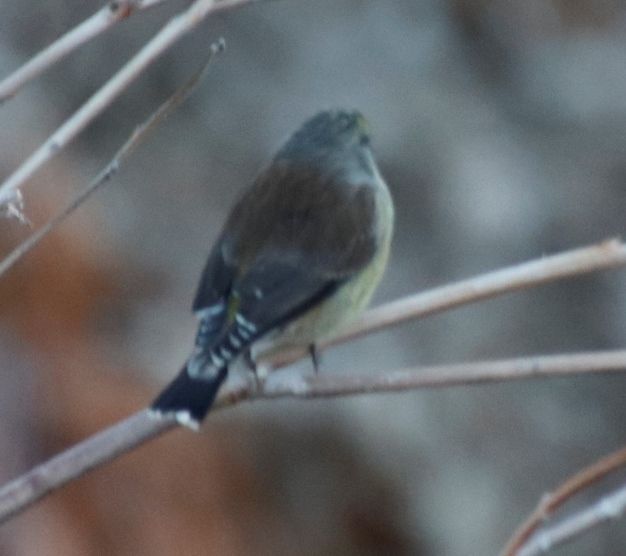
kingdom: Animalia
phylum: Chordata
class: Aves
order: Passeriformes
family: Fringillidae
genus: Crithagra
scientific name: Crithagra totta
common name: Cape siskin
